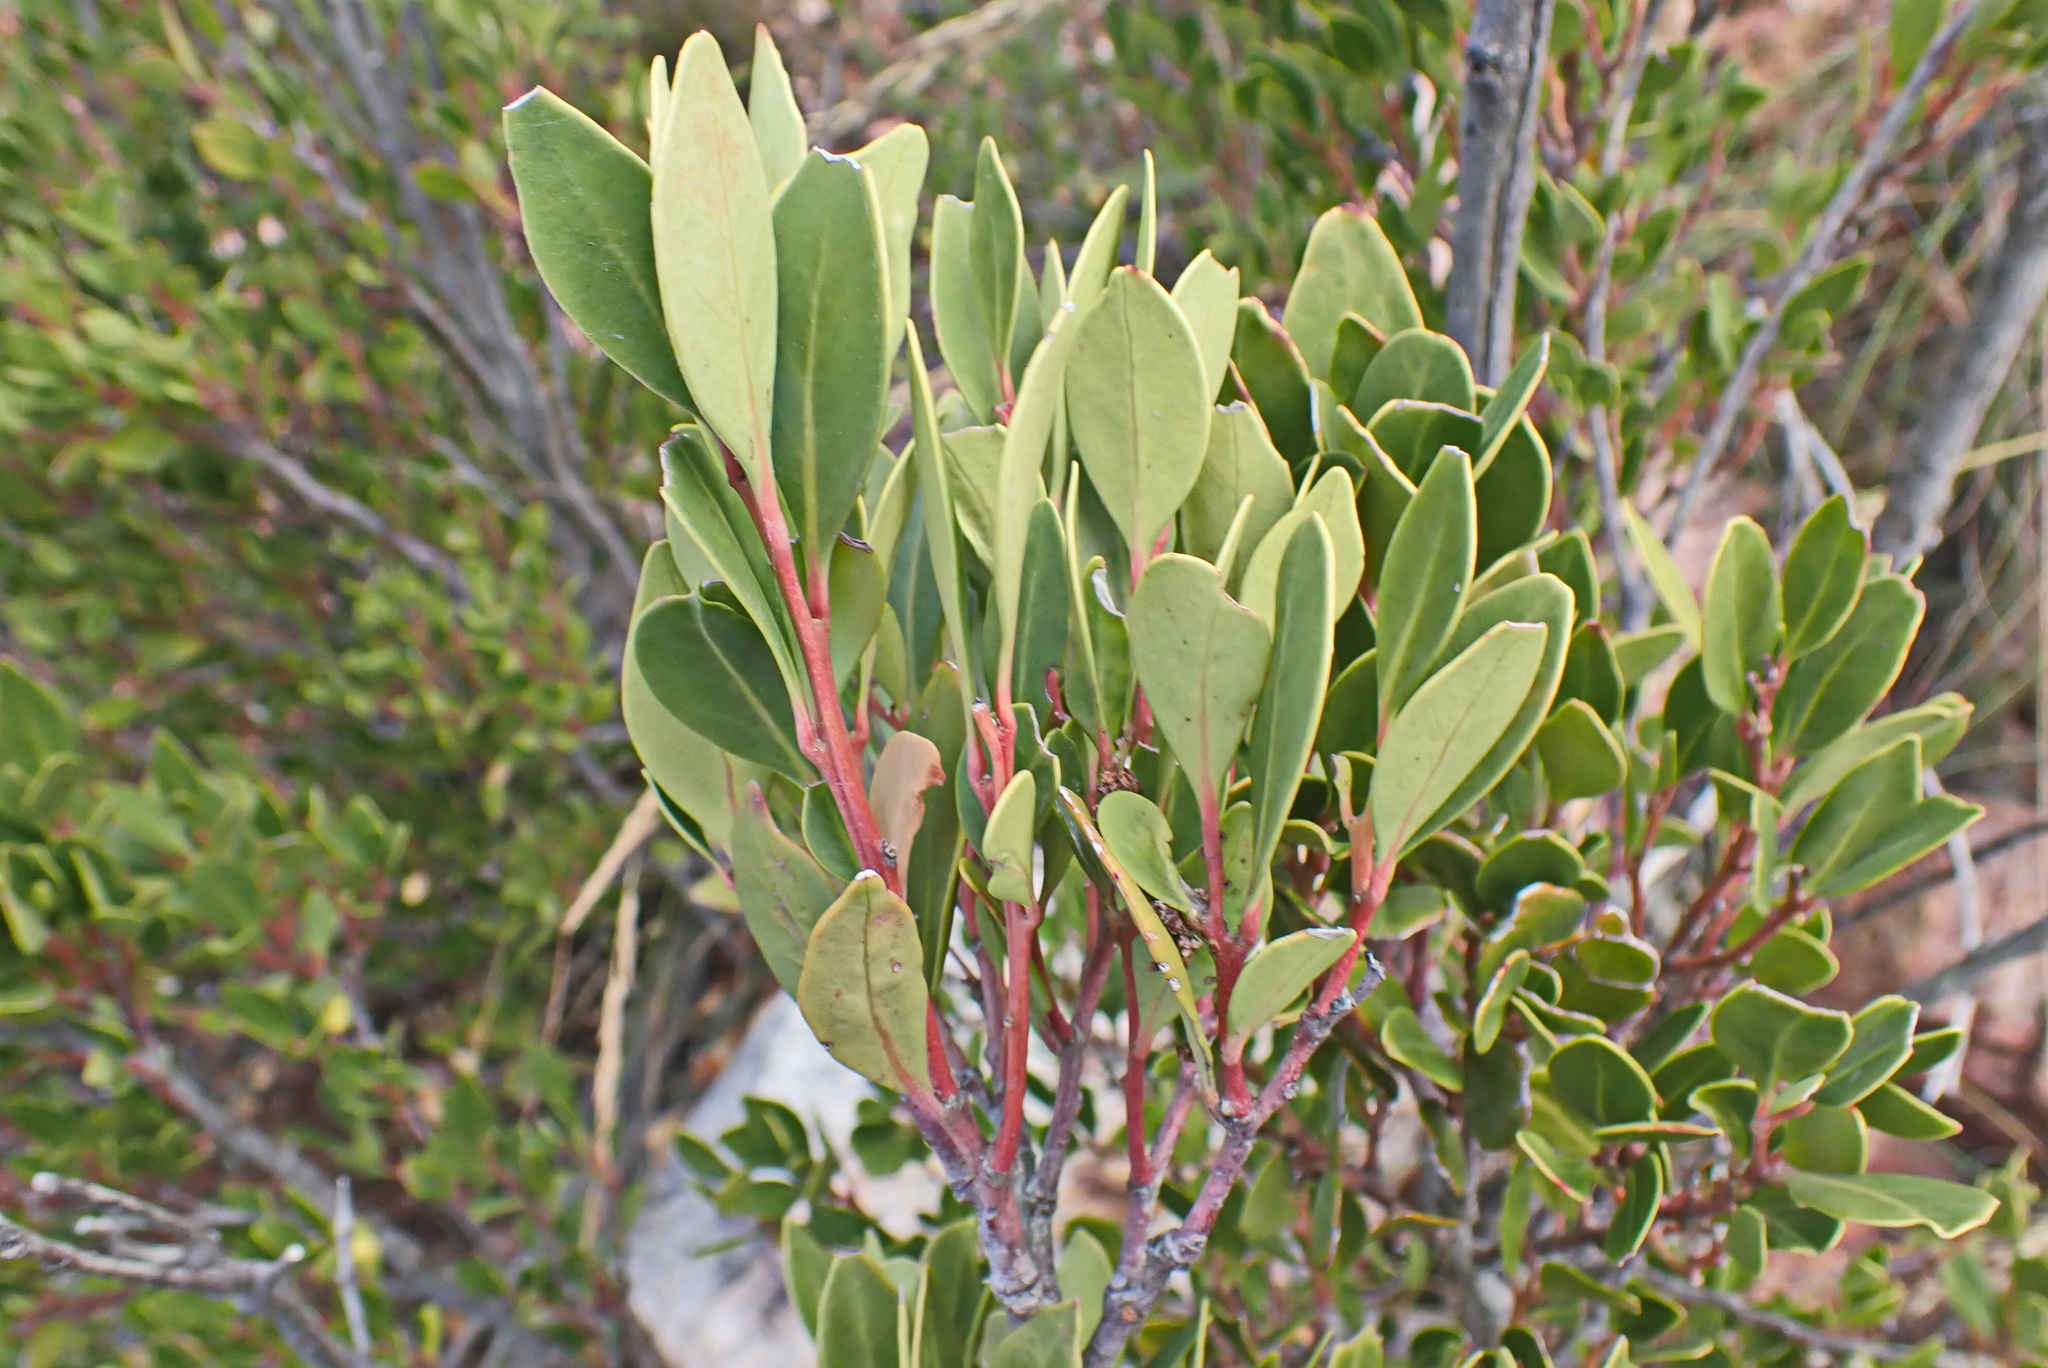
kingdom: Plantae
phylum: Tracheophyta
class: Magnoliopsida
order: Celastrales
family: Celastraceae
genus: Gymnosporia
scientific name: Gymnosporia laurina
